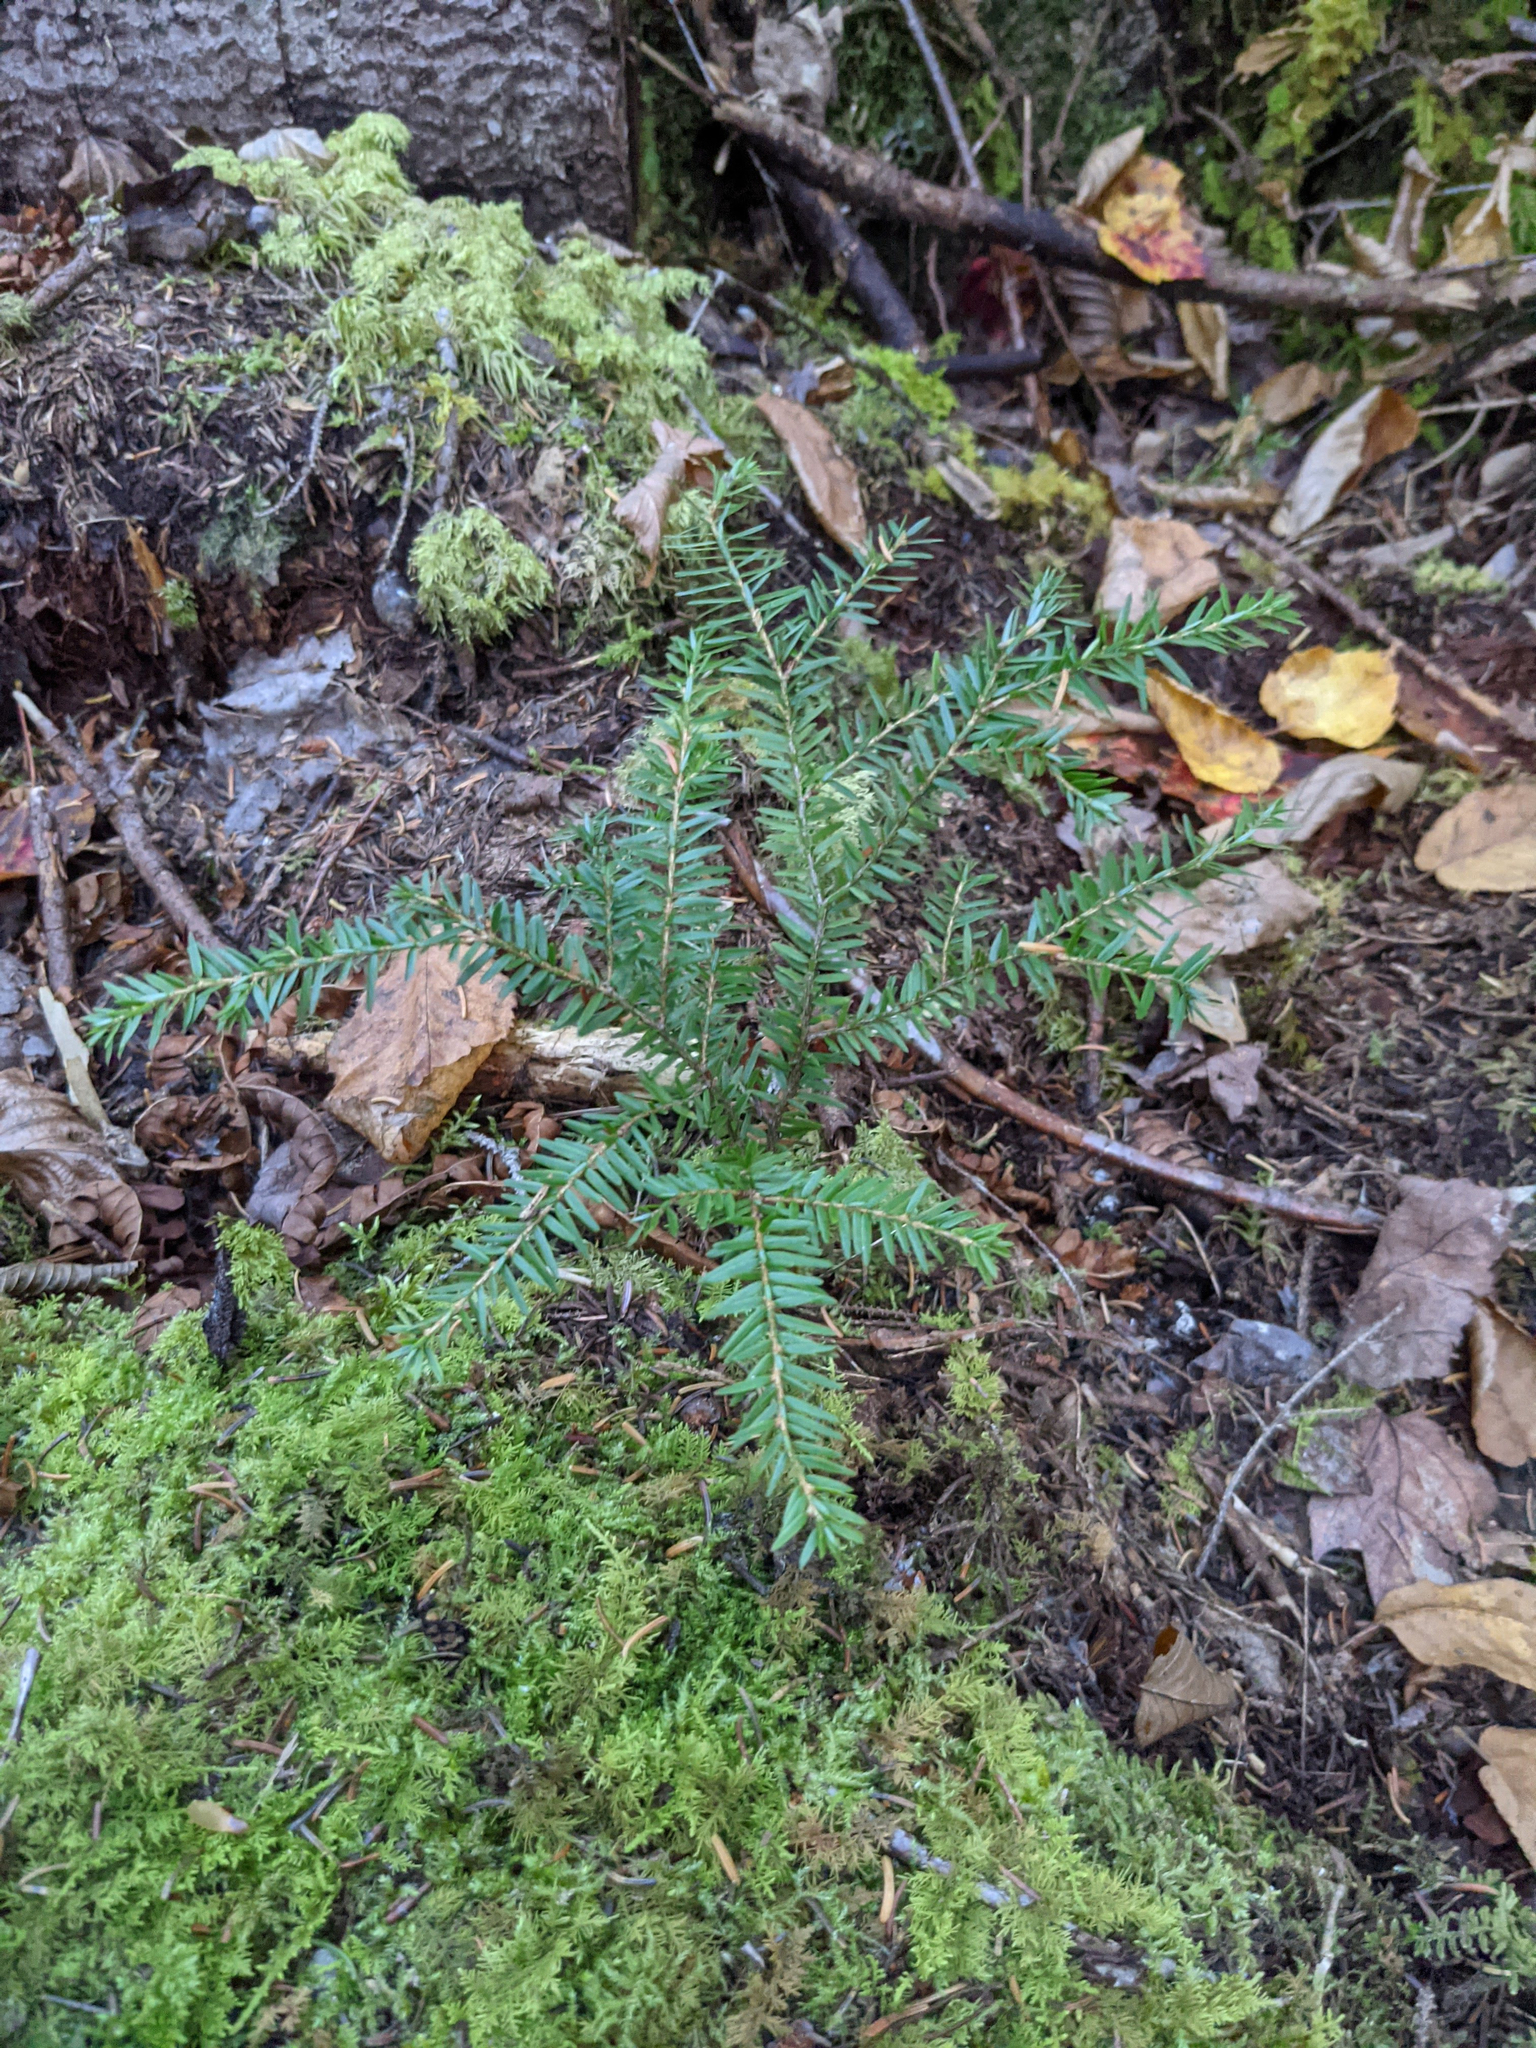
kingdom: Plantae
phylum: Tracheophyta
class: Pinopsida
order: Pinales
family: Pinaceae
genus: Tsuga
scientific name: Tsuga canadensis
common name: Eastern hemlock
